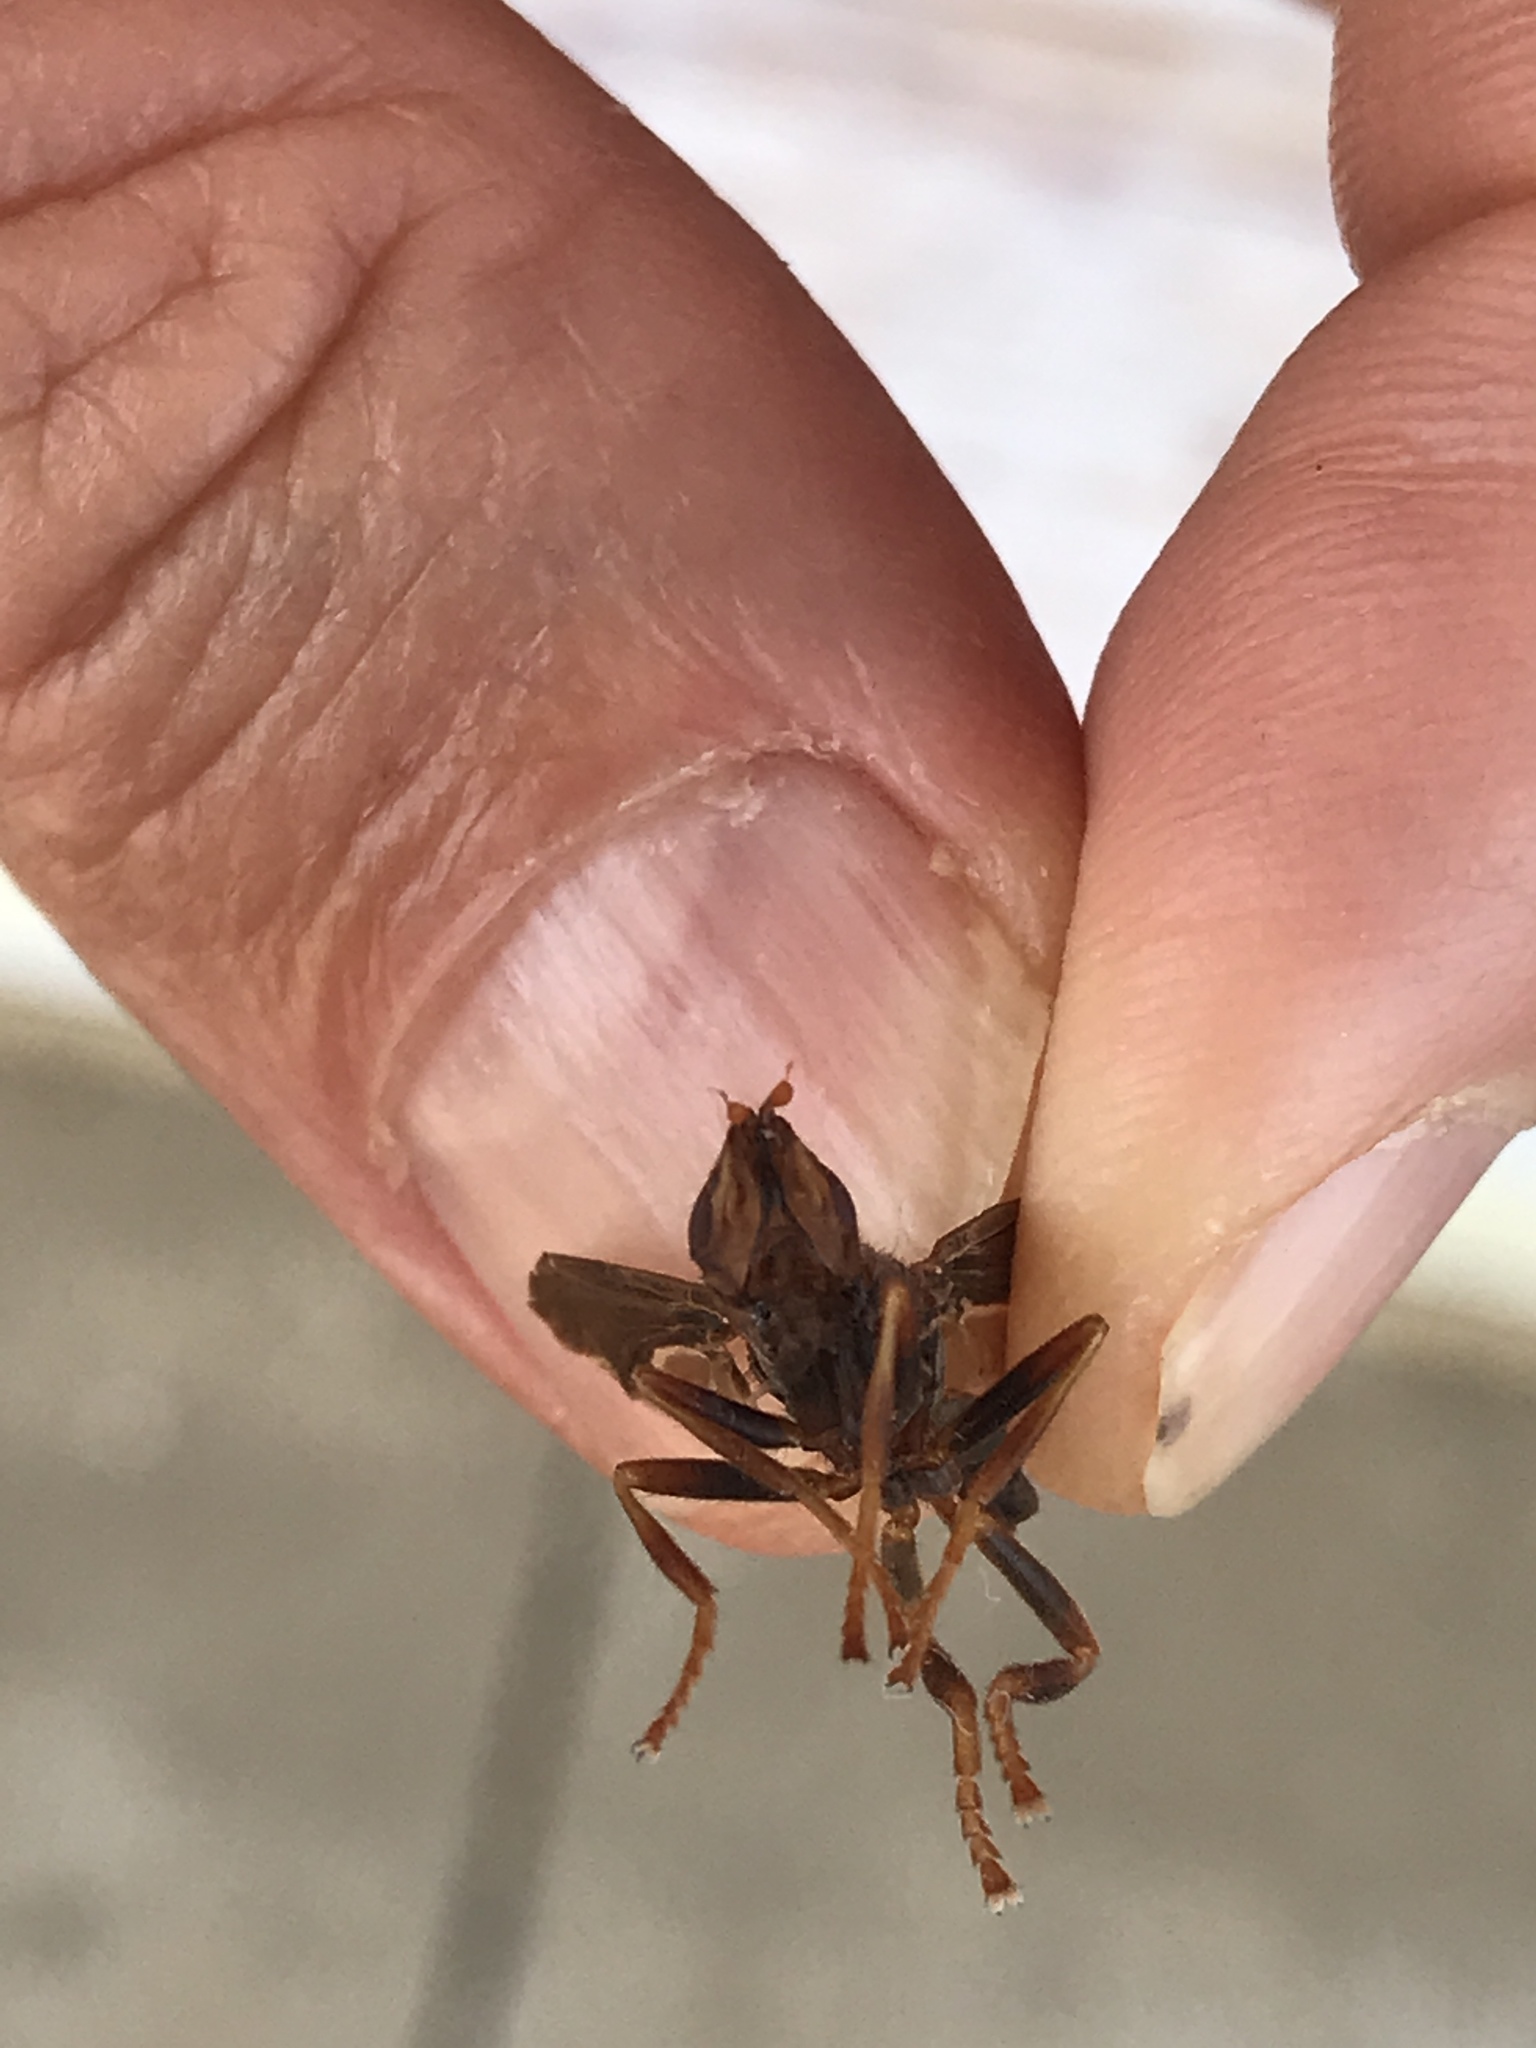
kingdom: Animalia
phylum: Arthropoda
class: Insecta
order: Diptera
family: Pyrgotidae
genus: Pyrgota
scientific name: Pyrgota undata
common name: Waved light fly
